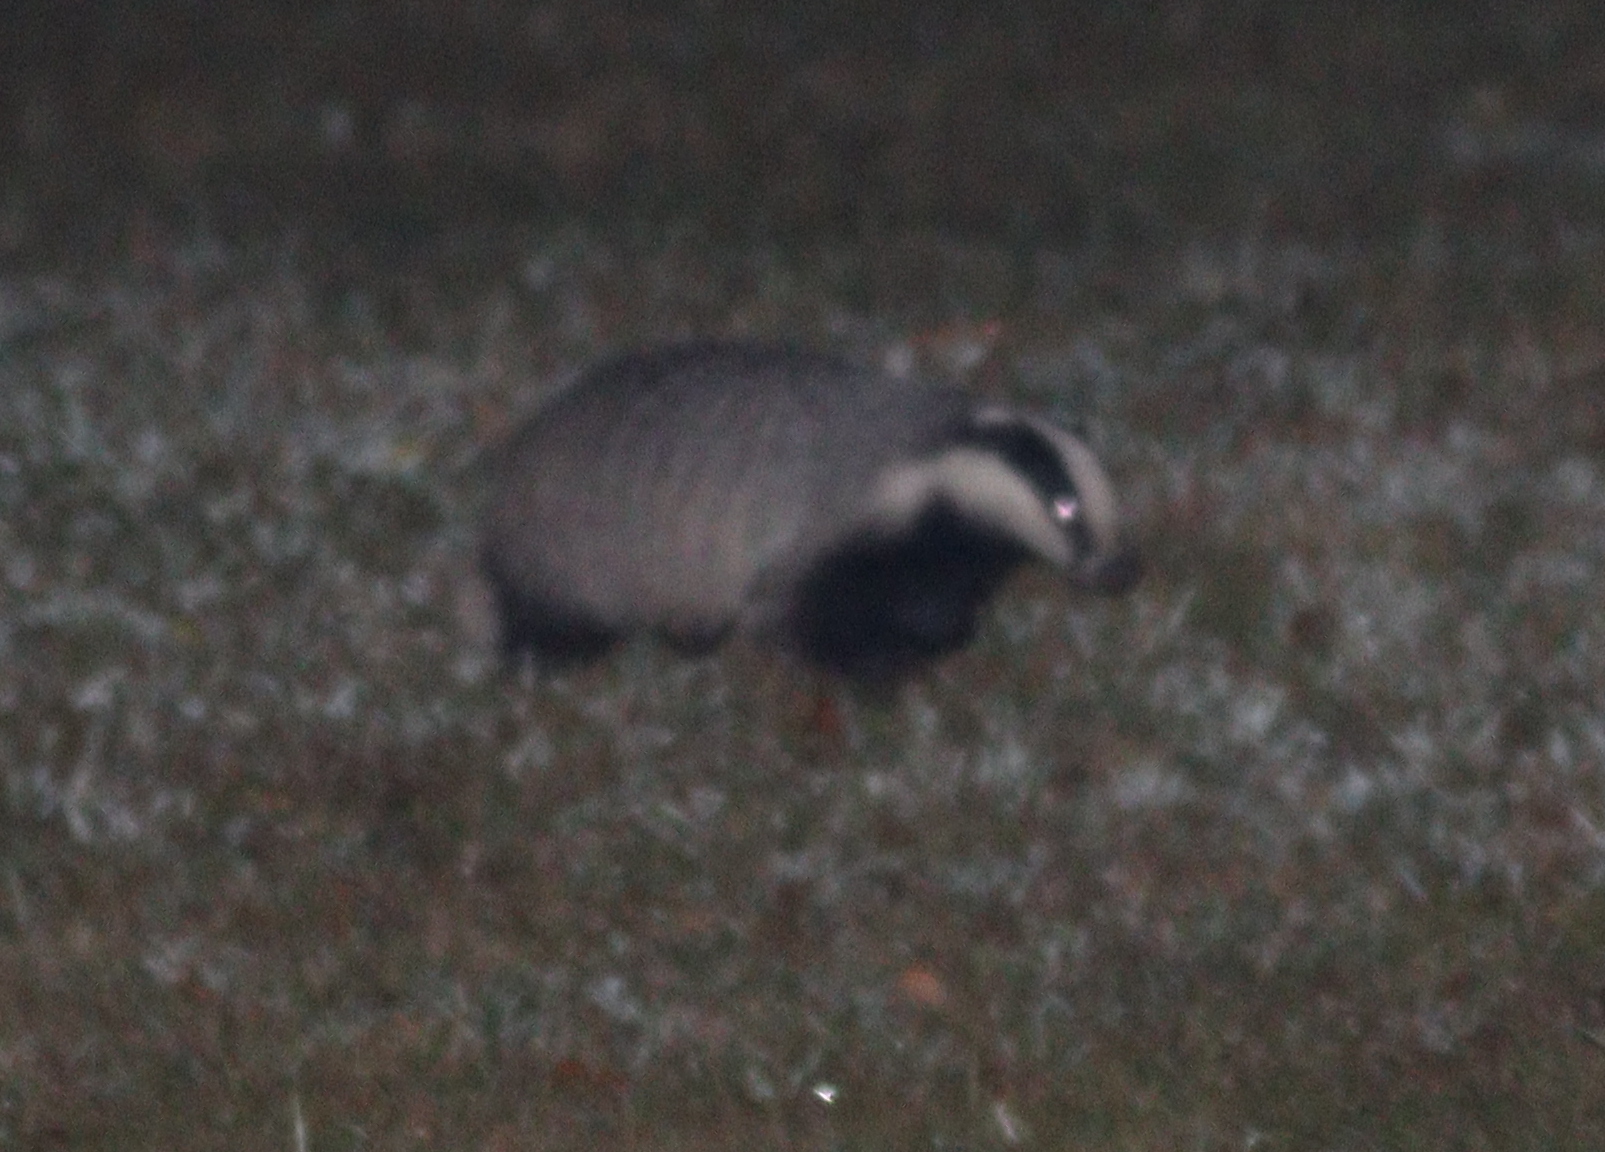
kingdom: Animalia
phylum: Chordata
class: Mammalia
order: Carnivora
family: Mustelidae
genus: Meles
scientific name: Meles meles
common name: Eurasian badger
